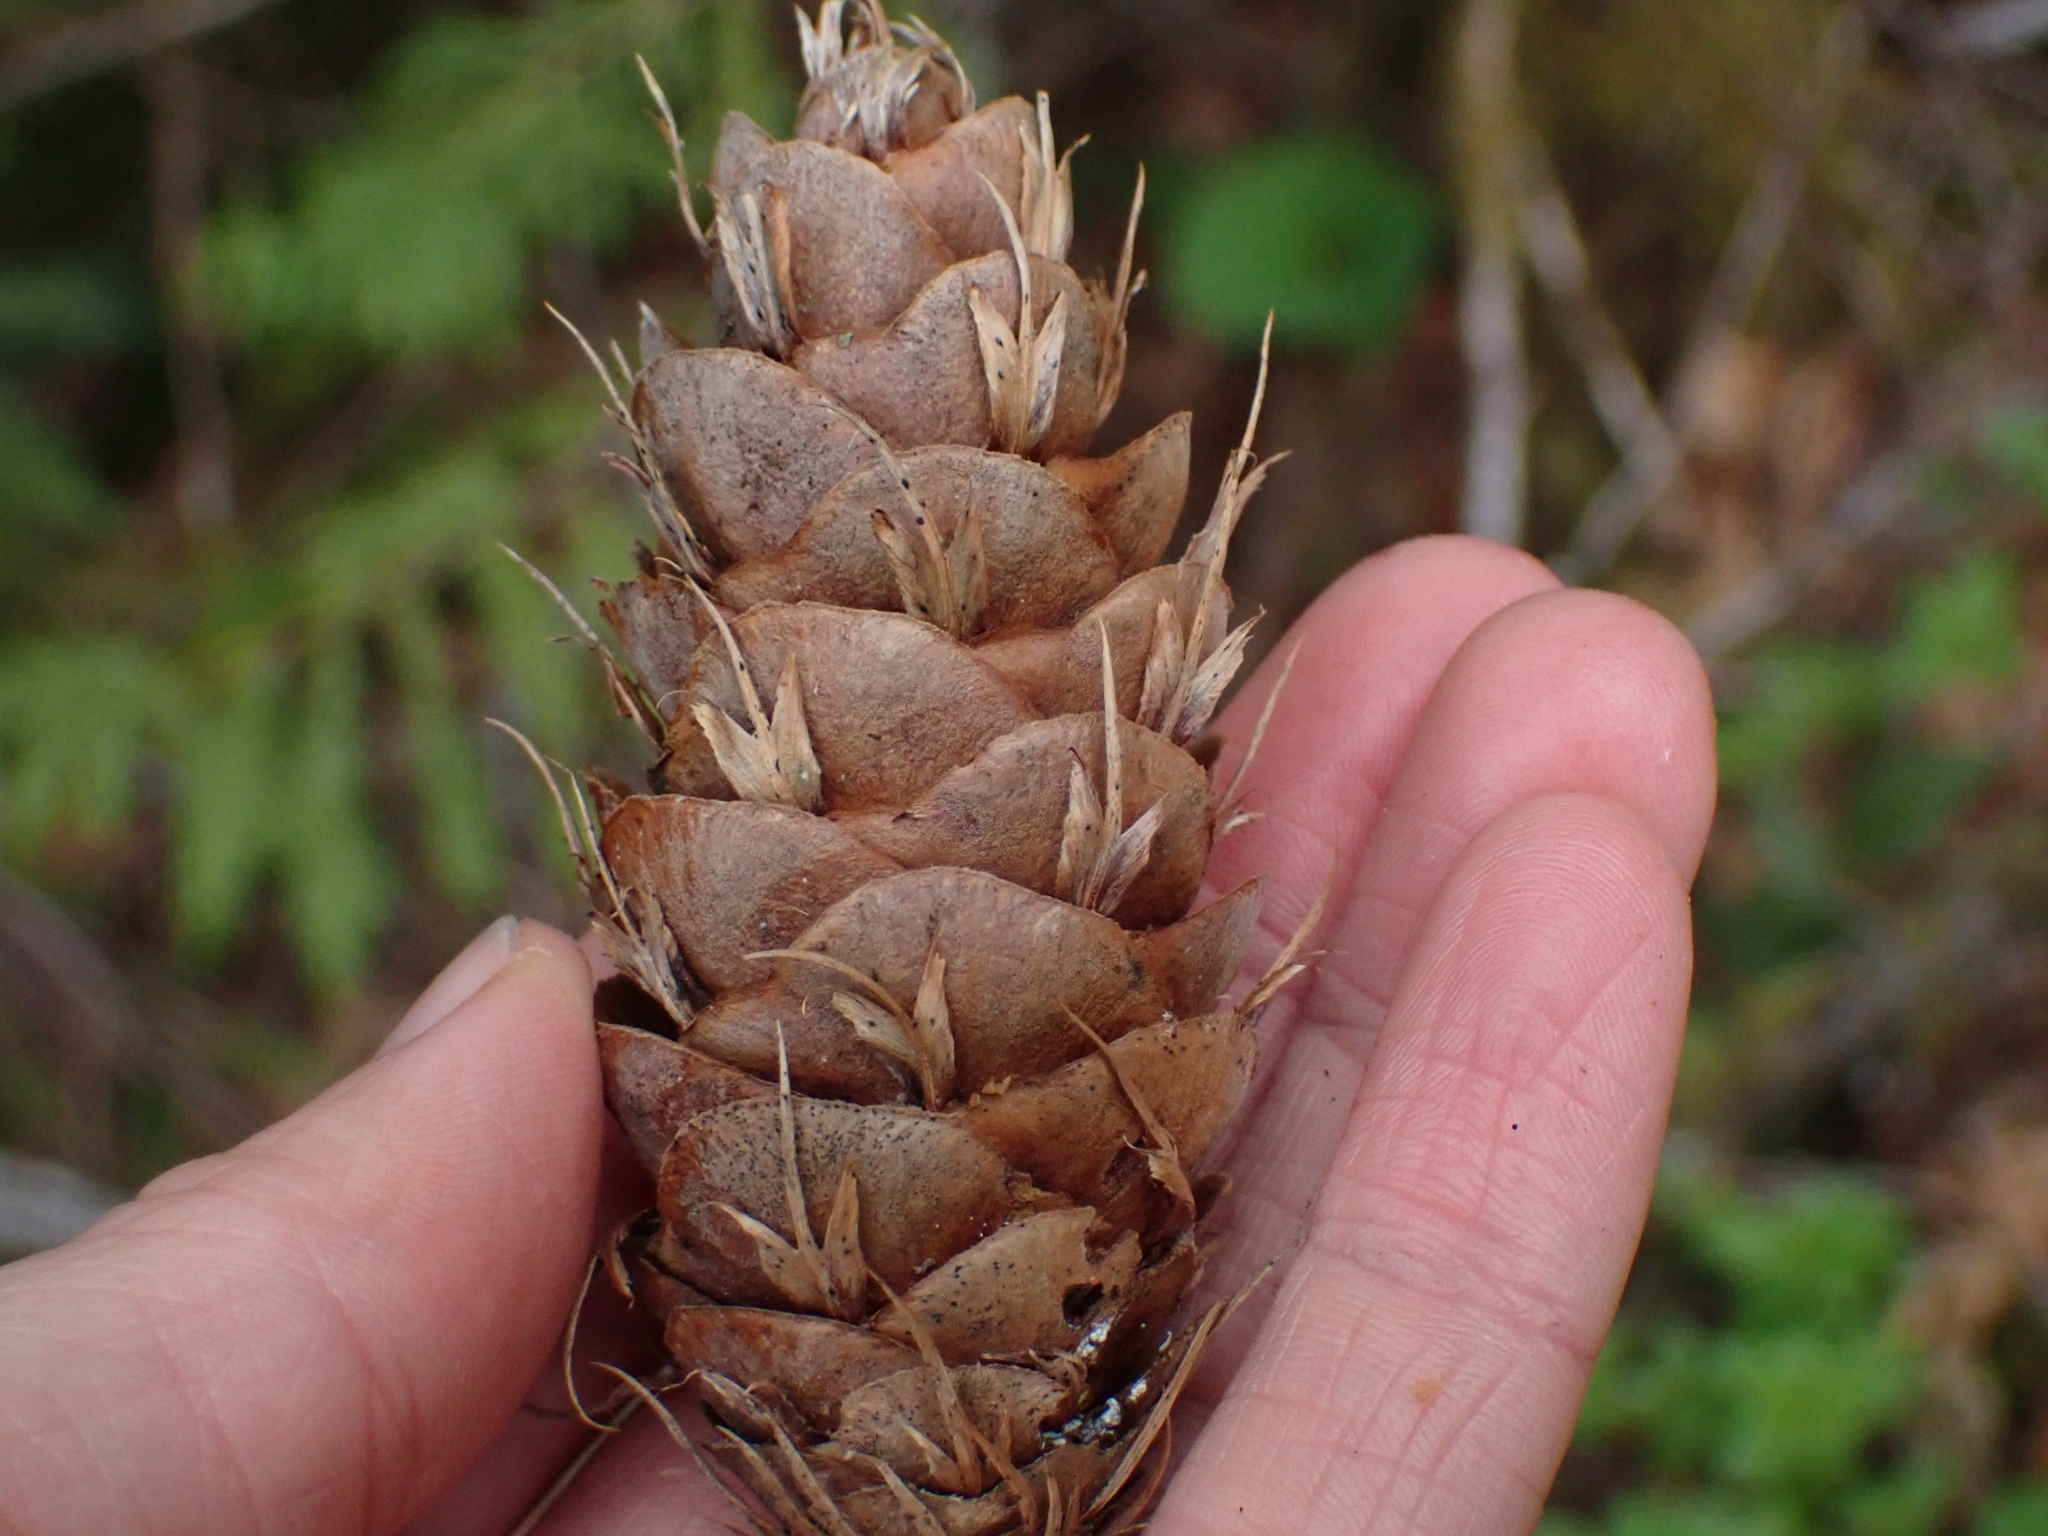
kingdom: Plantae
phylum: Tracheophyta
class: Pinopsida
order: Pinales
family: Pinaceae
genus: Pseudotsuga
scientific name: Pseudotsuga menziesii
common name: Douglas fir
